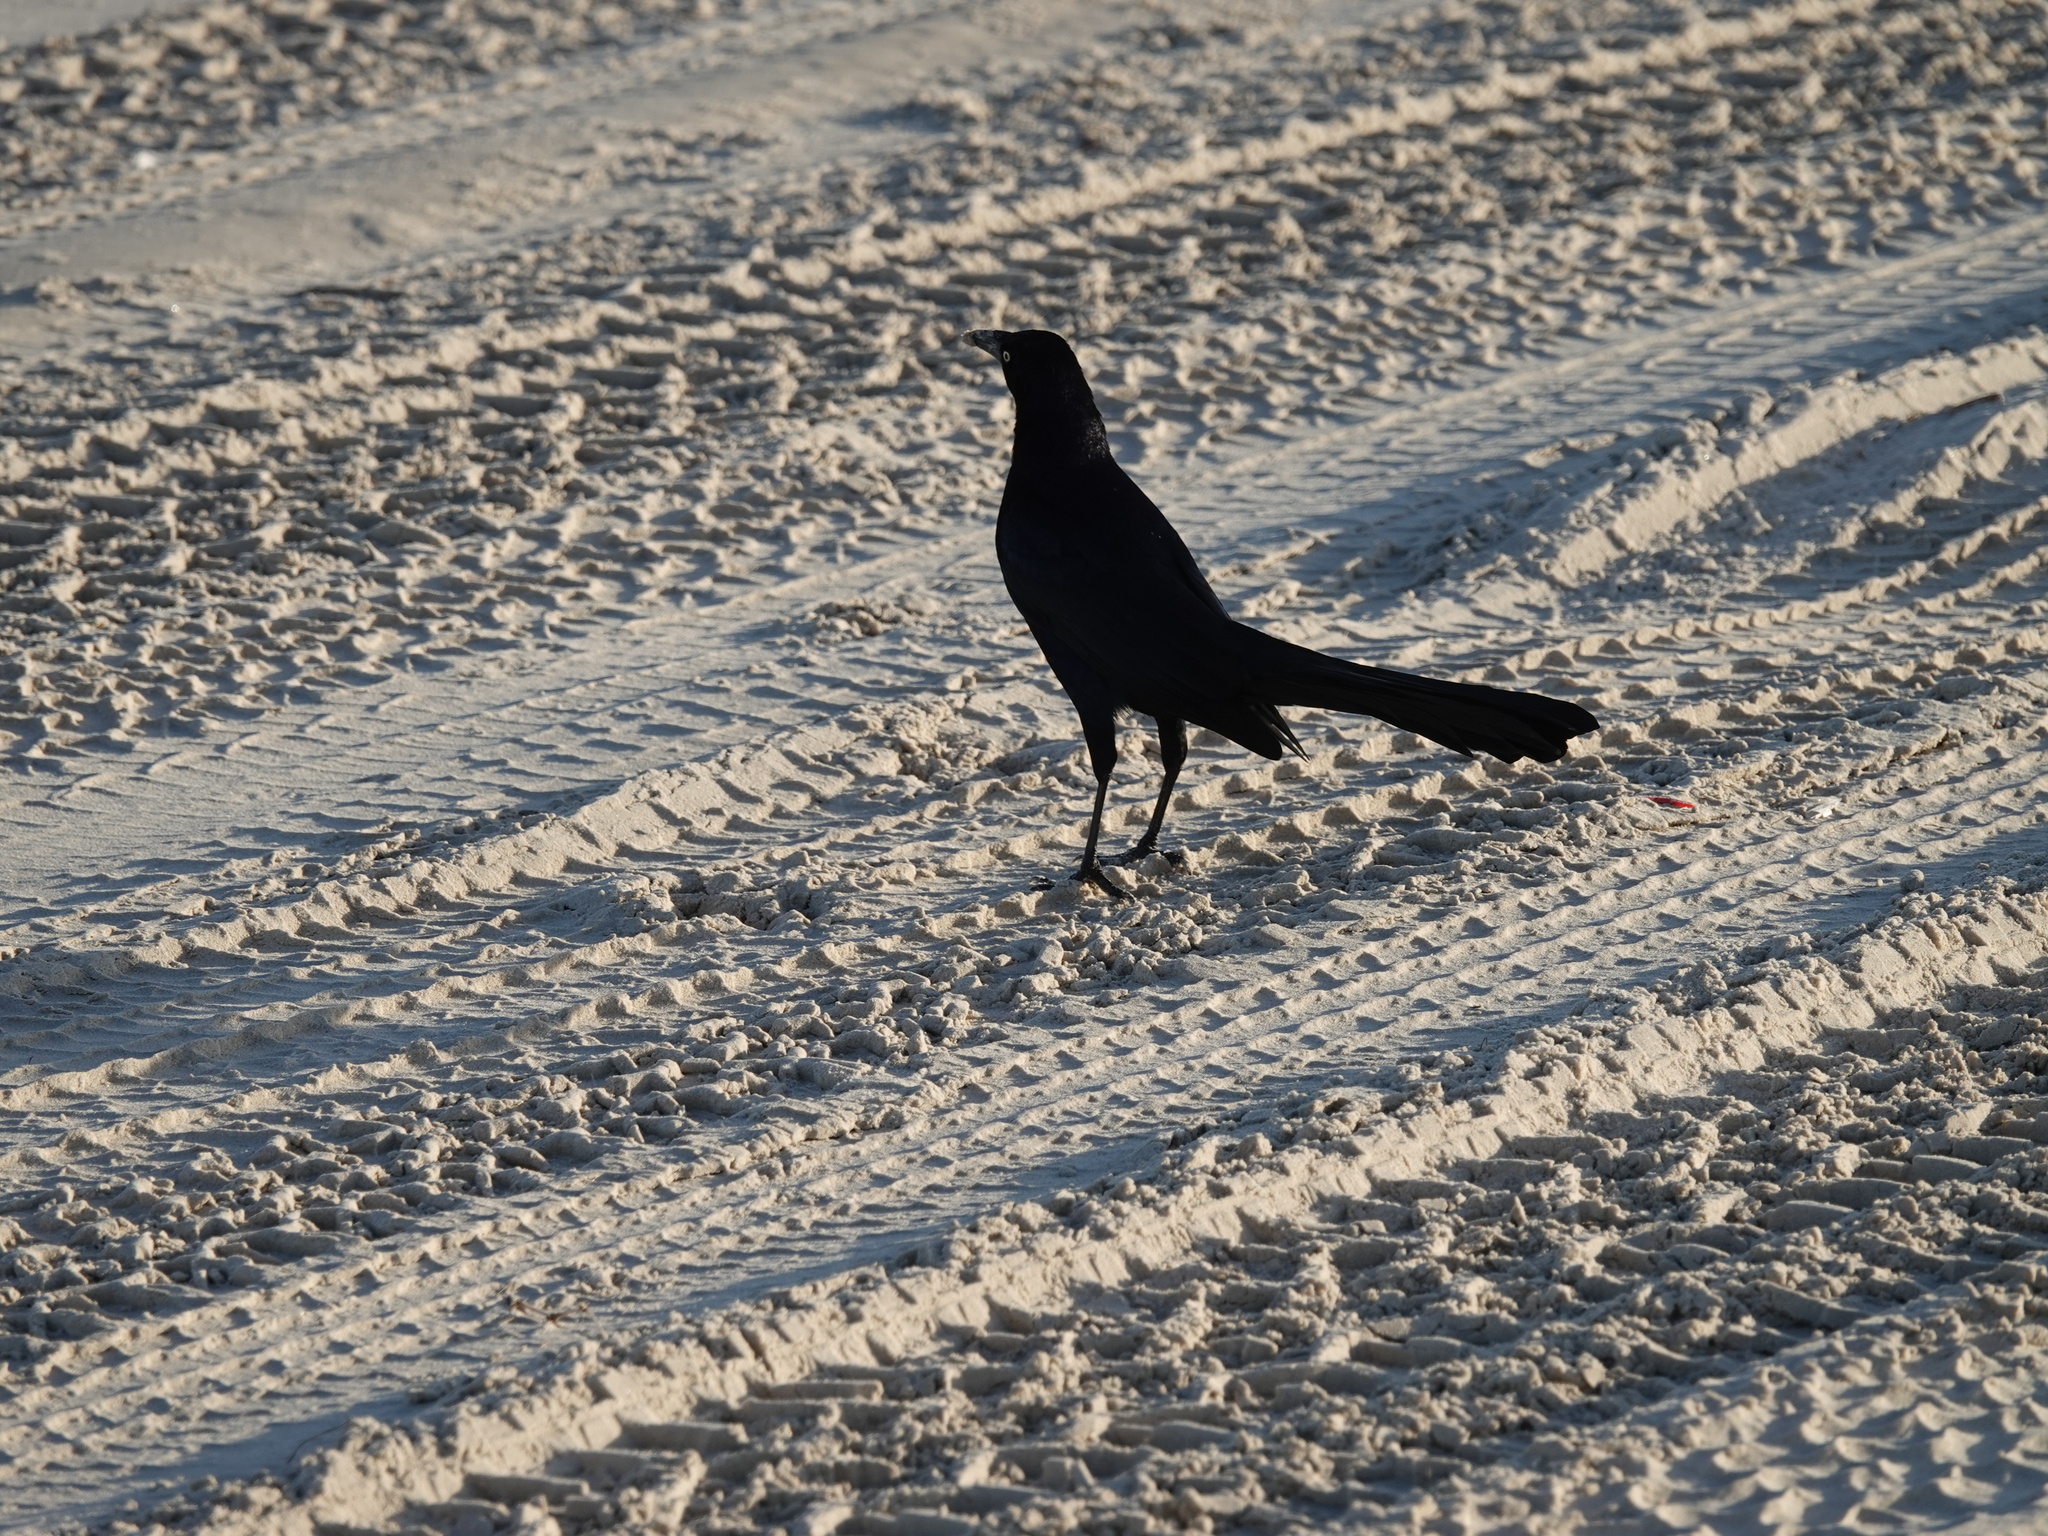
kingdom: Animalia
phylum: Chordata
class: Aves
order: Passeriformes
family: Icteridae
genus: Quiscalus
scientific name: Quiscalus mexicanus
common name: Great-tailed grackle
